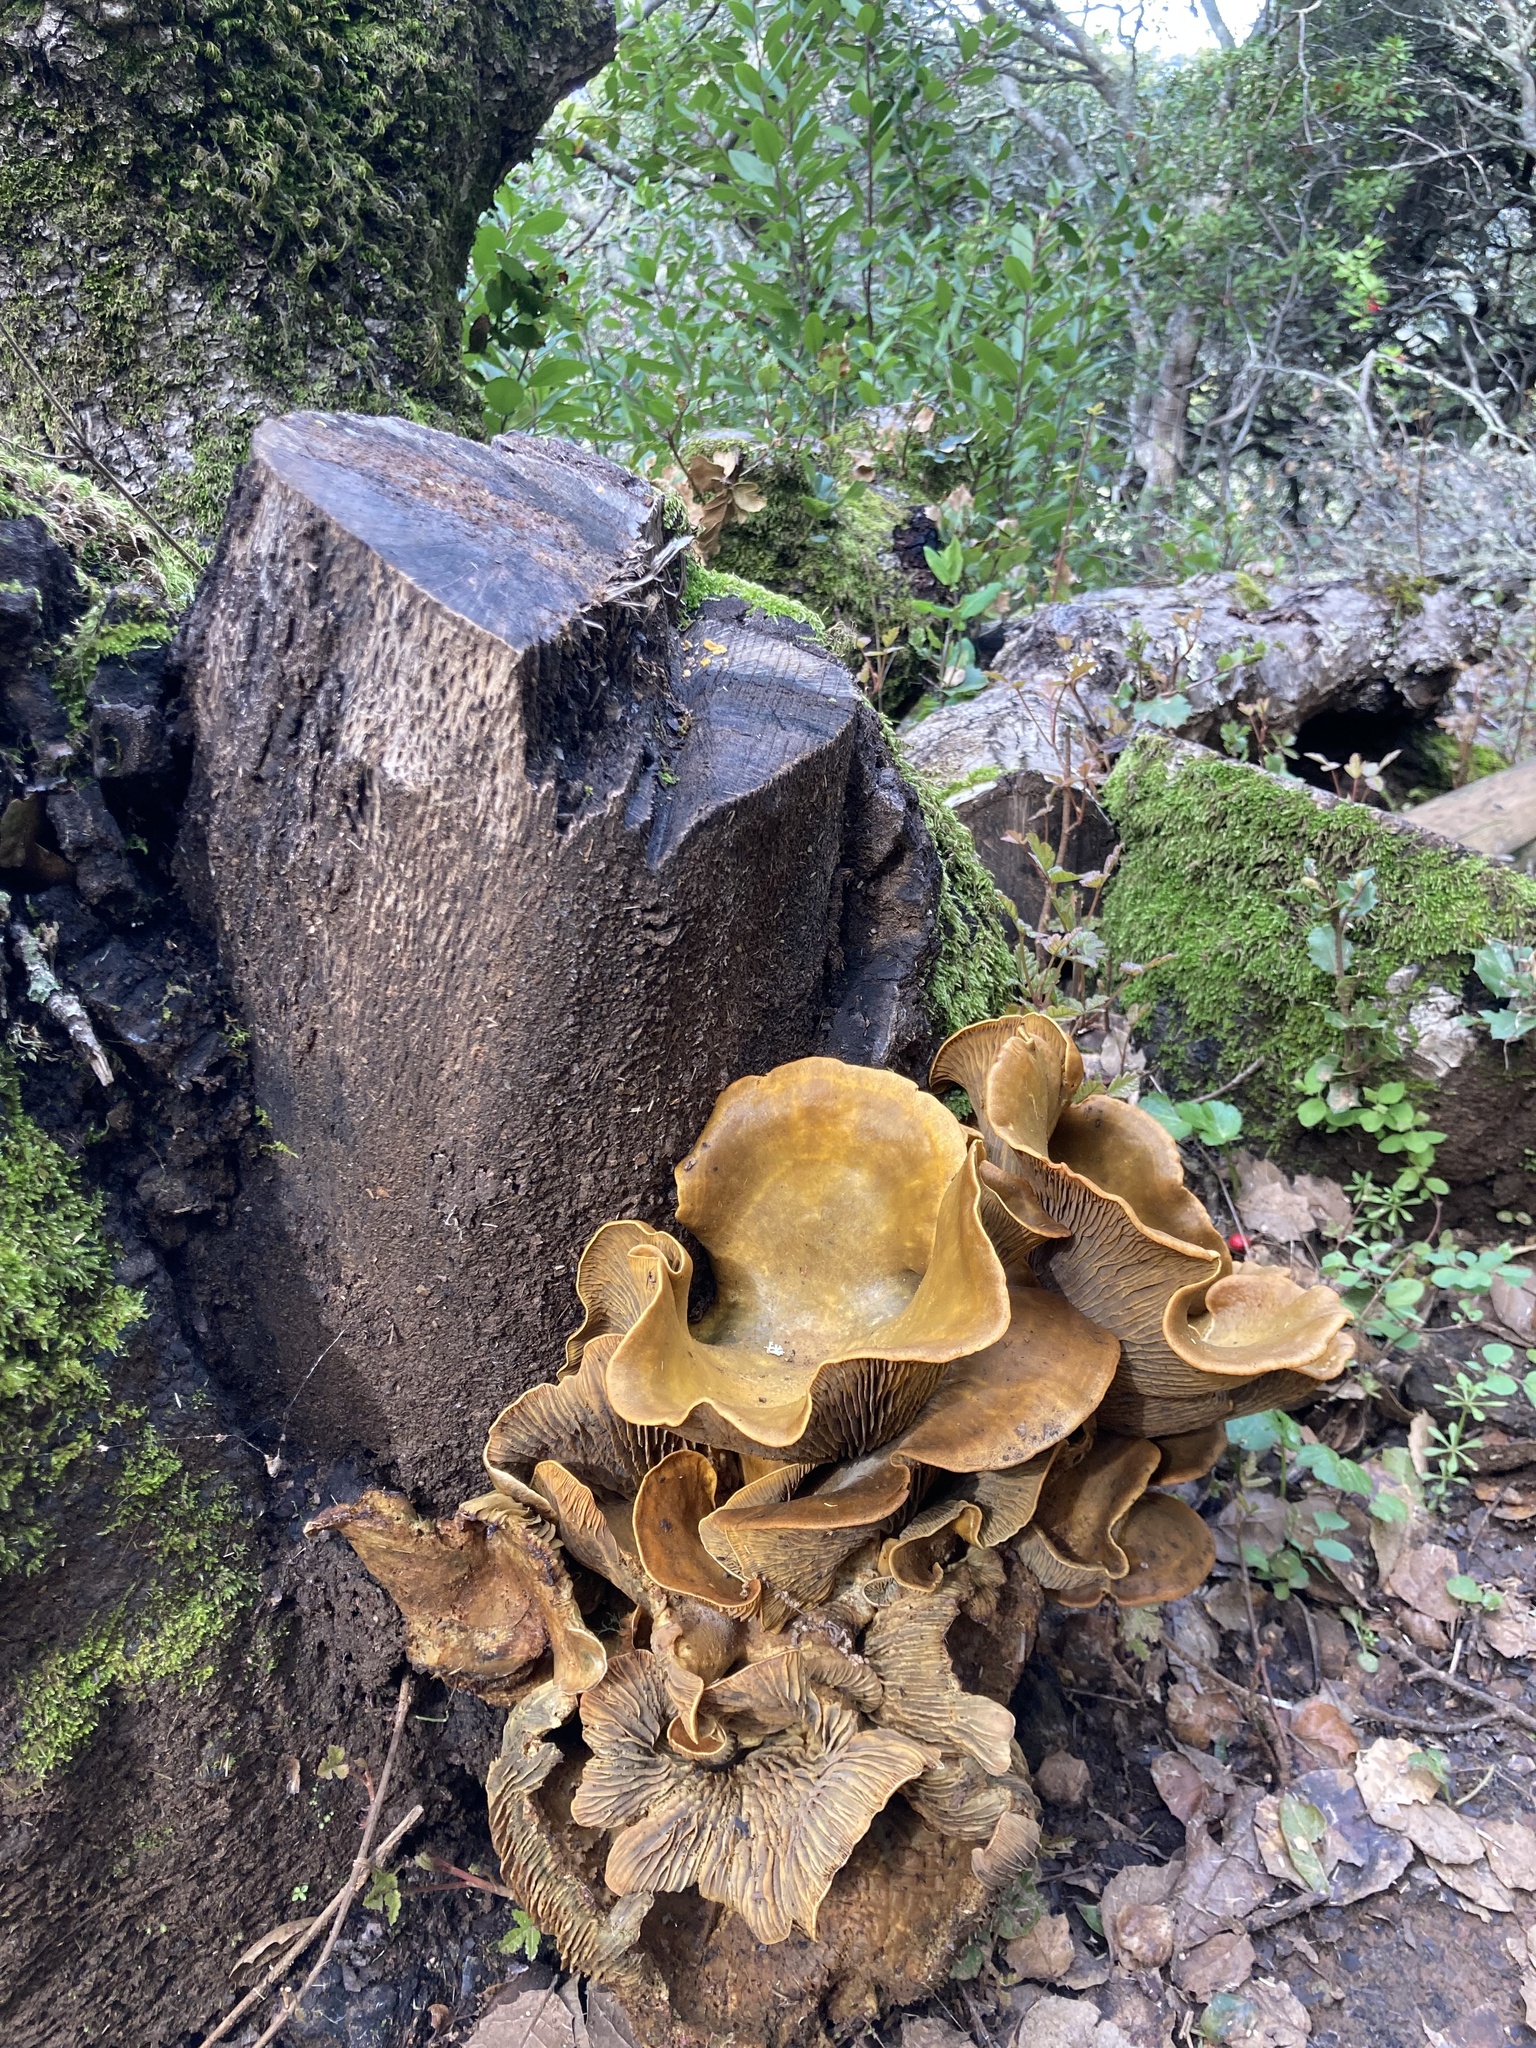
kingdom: Fungi
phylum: Basidiomycota
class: Agaricomycetes
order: Agaricales
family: Omphalotaceae
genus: Omphalotus
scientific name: Omphalotus olivascens
